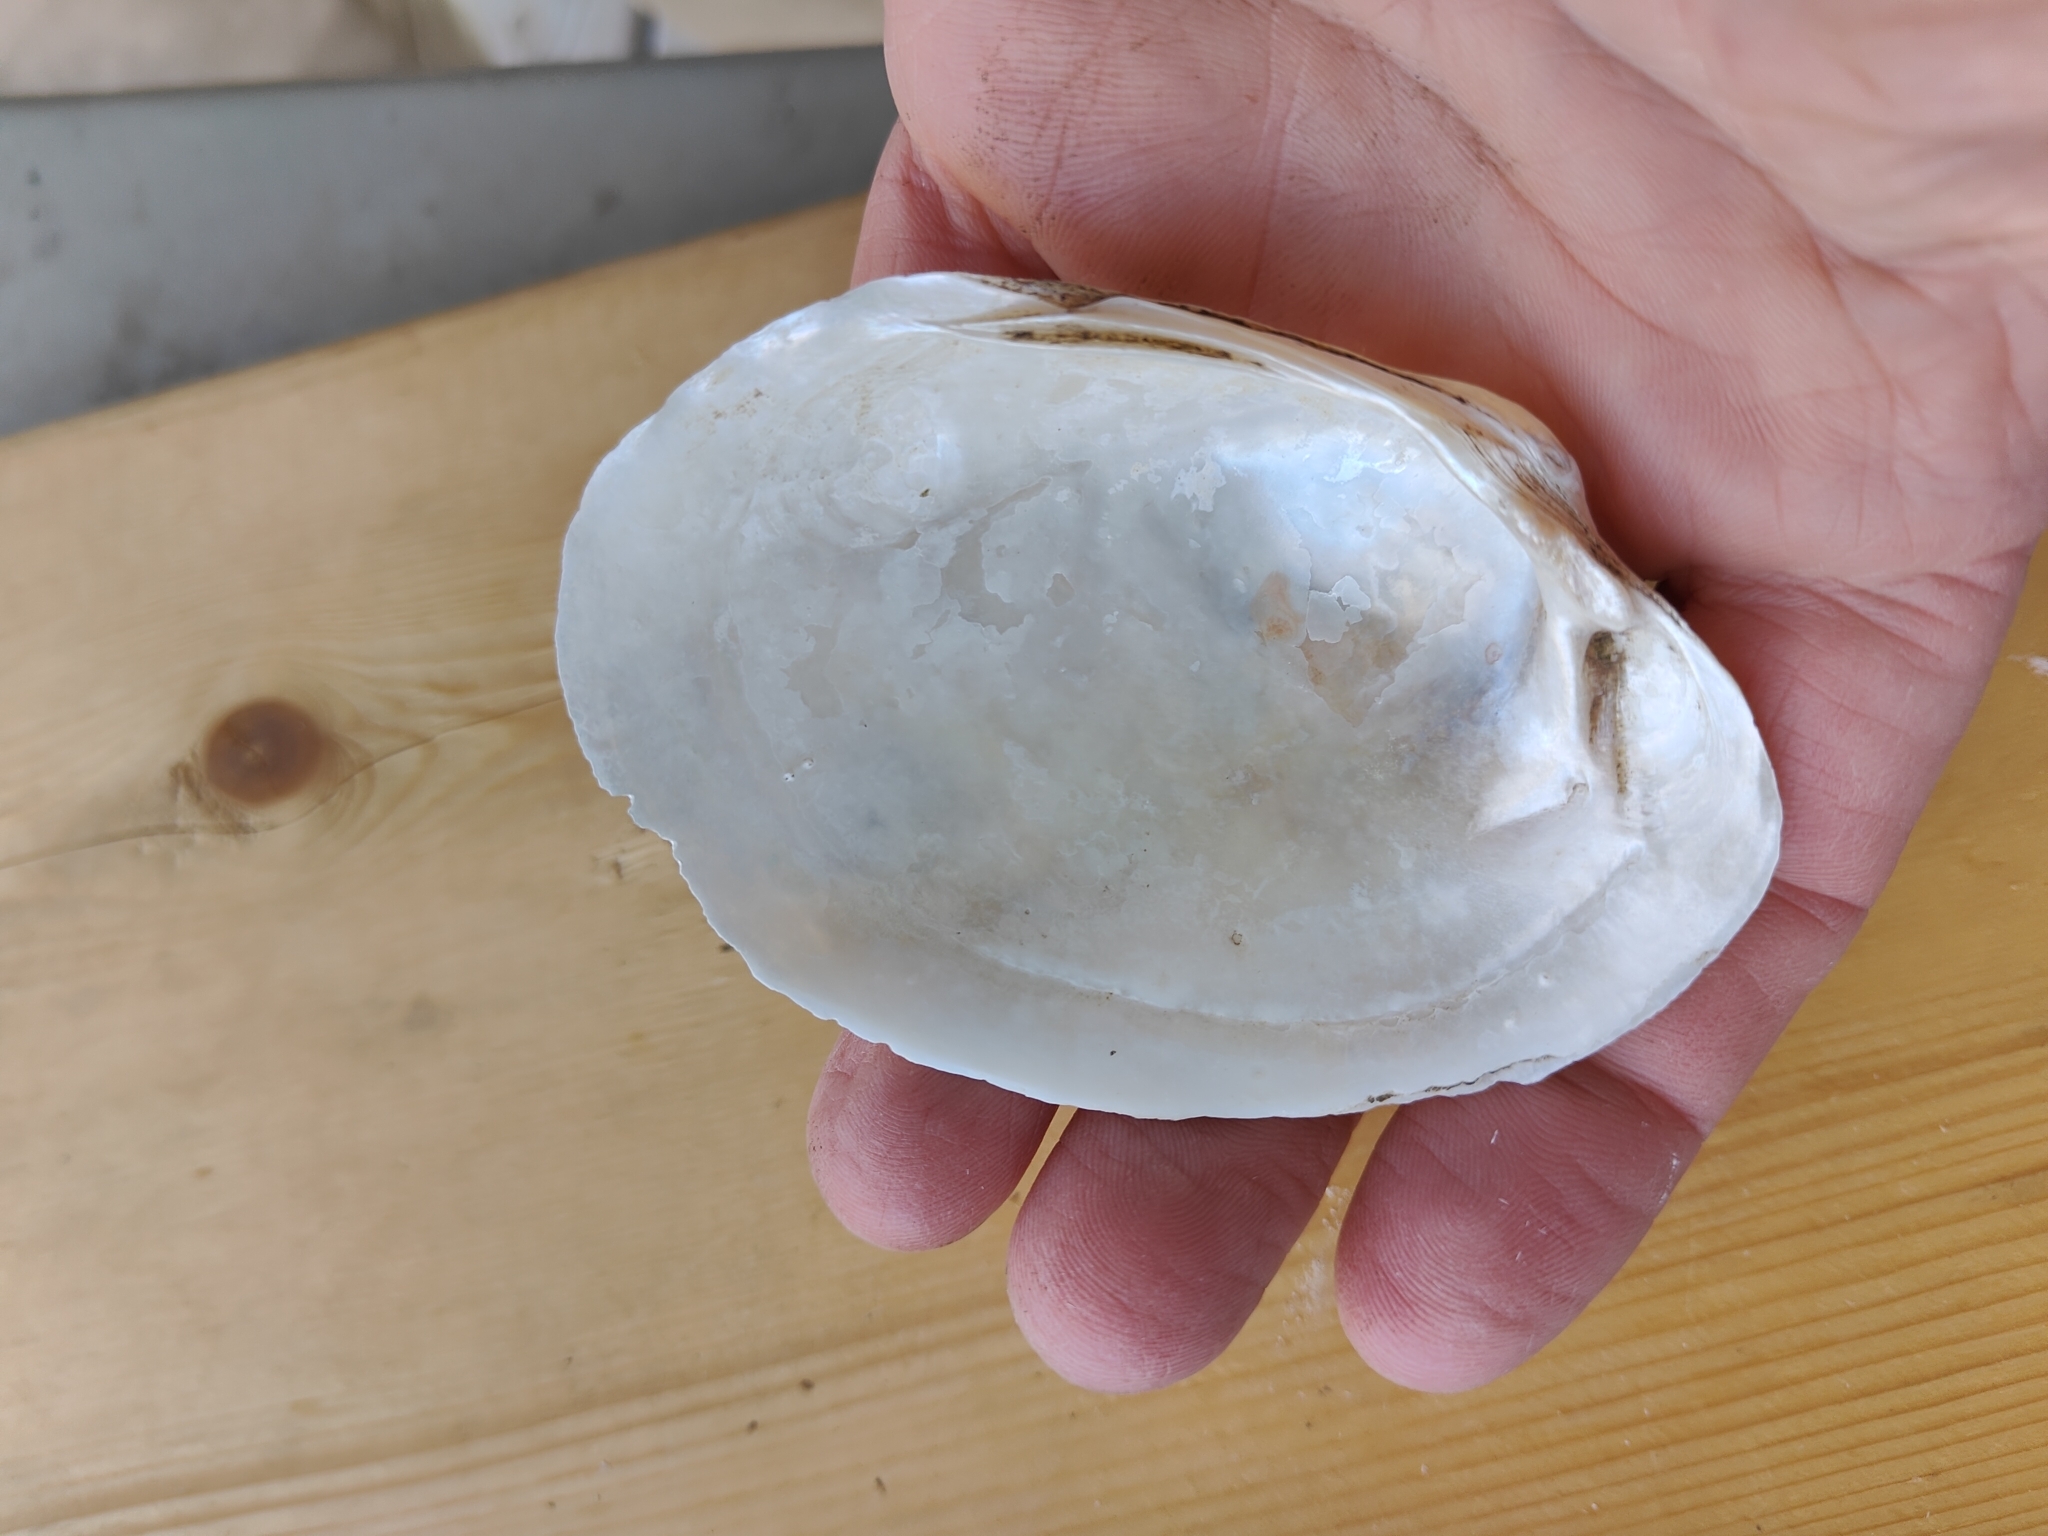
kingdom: Animalia
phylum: Mollusca
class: Bivalvia
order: Unionida
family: Unionidae
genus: Lampsilis
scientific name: Lampsilis cardium
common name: Plain pocketbook
